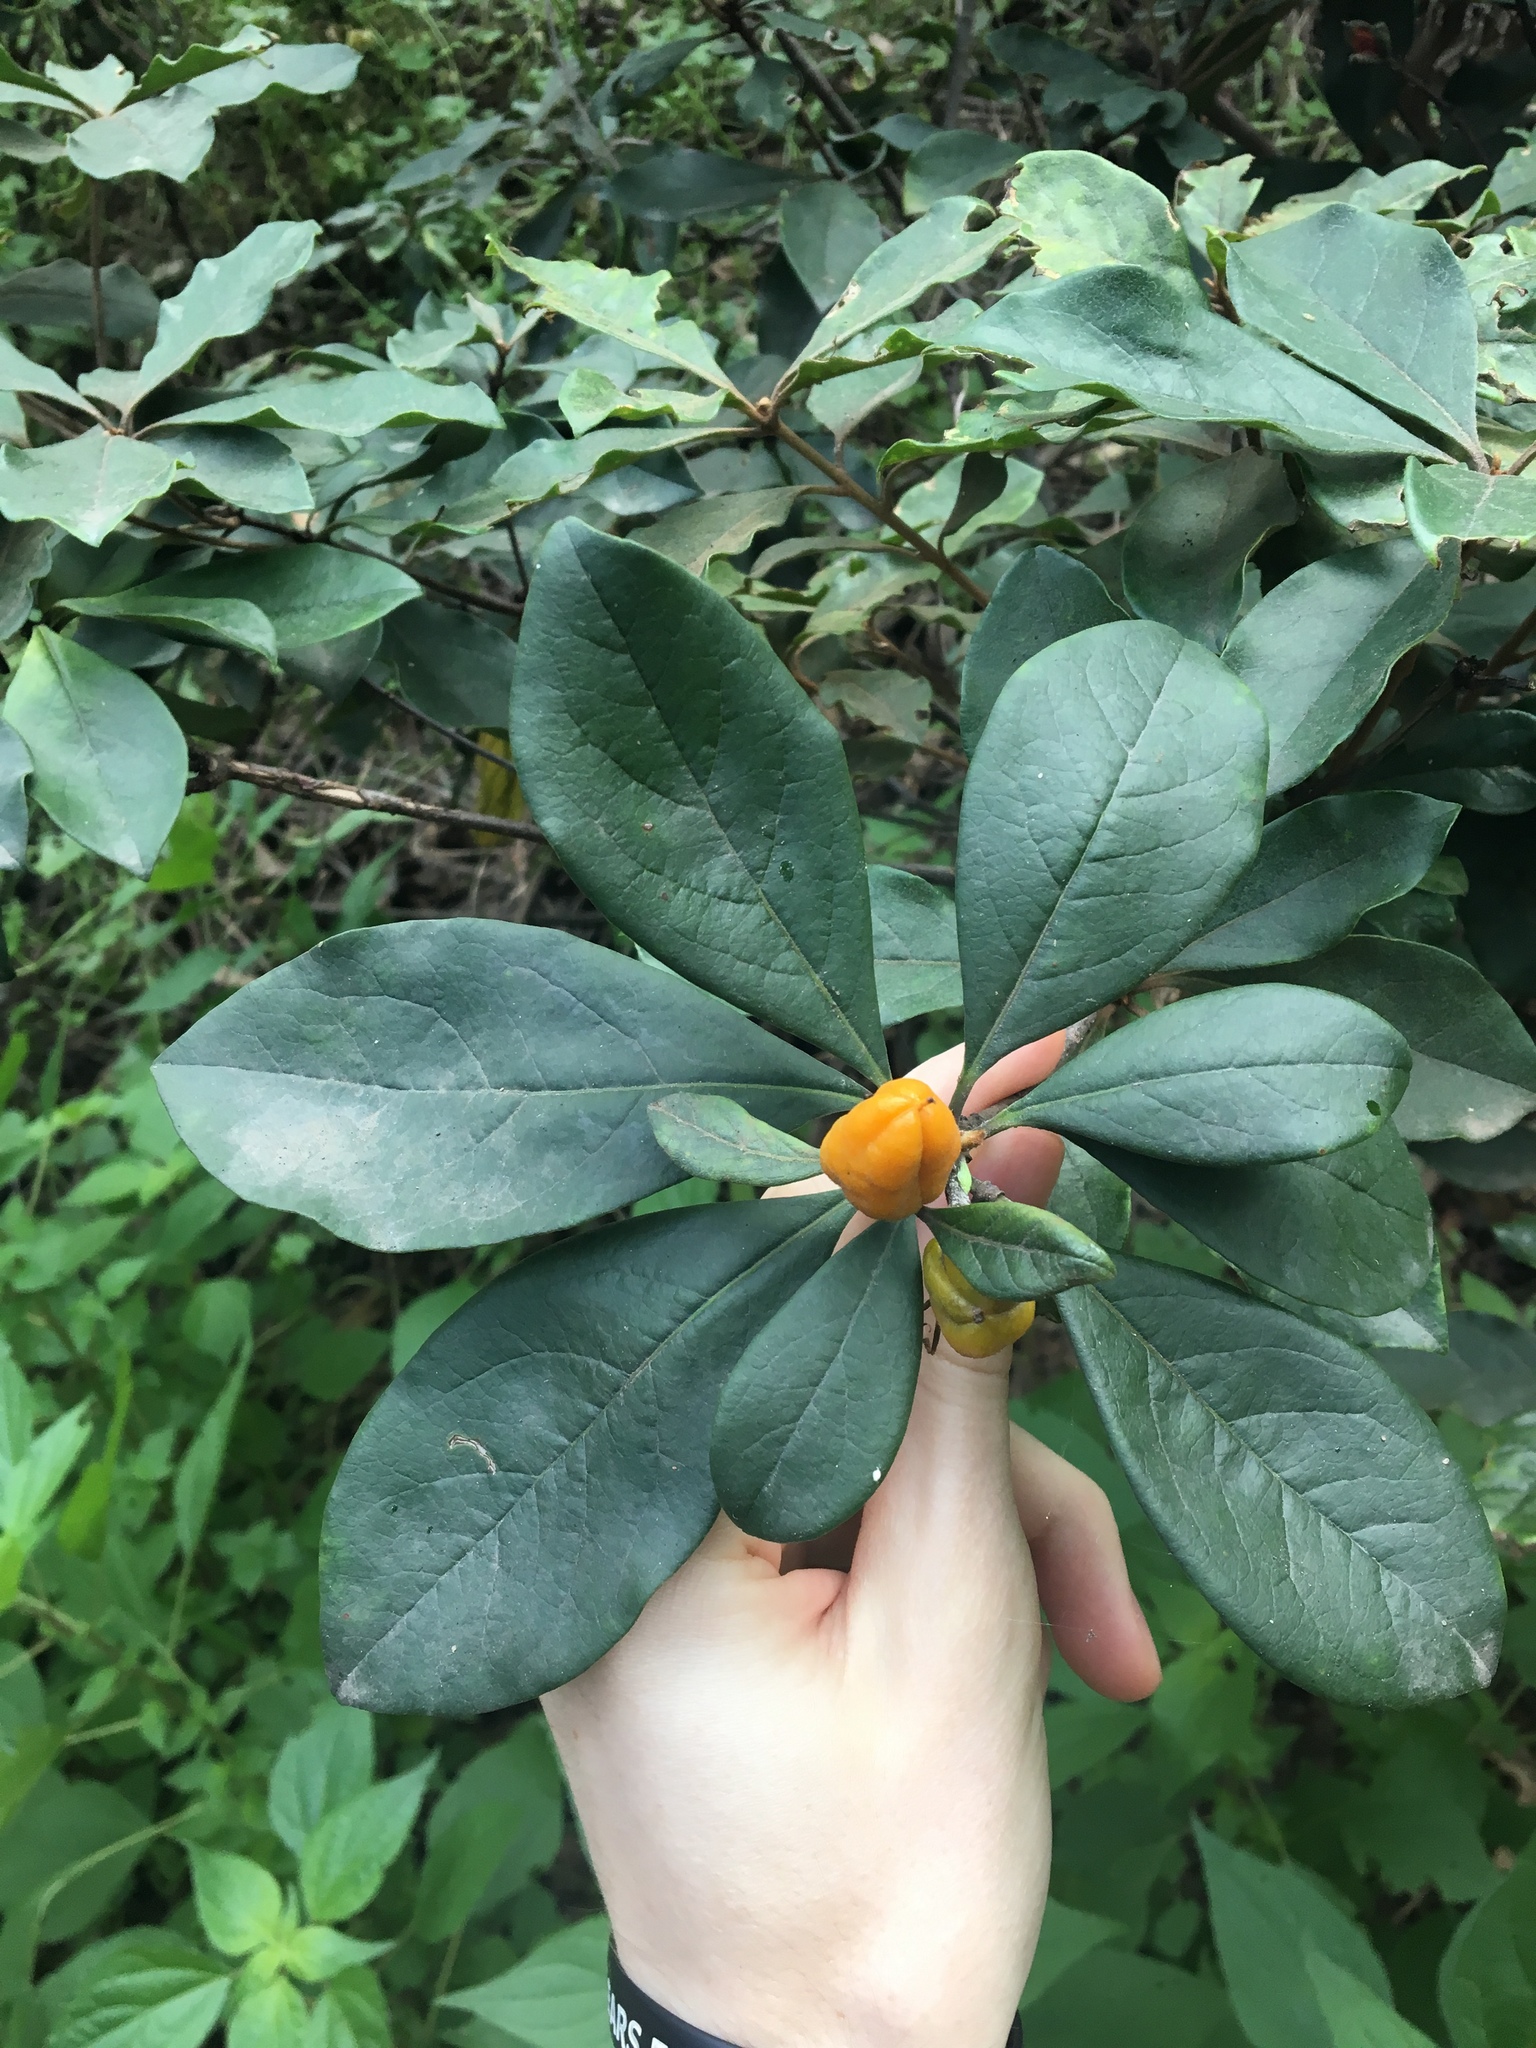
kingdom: Plantae
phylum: Tracheophyta
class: Magnoliopsida
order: Apiales
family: Pittosporaceae
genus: Pittosporum
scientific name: Pittosporum revolutum
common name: Brisbane-laurel
